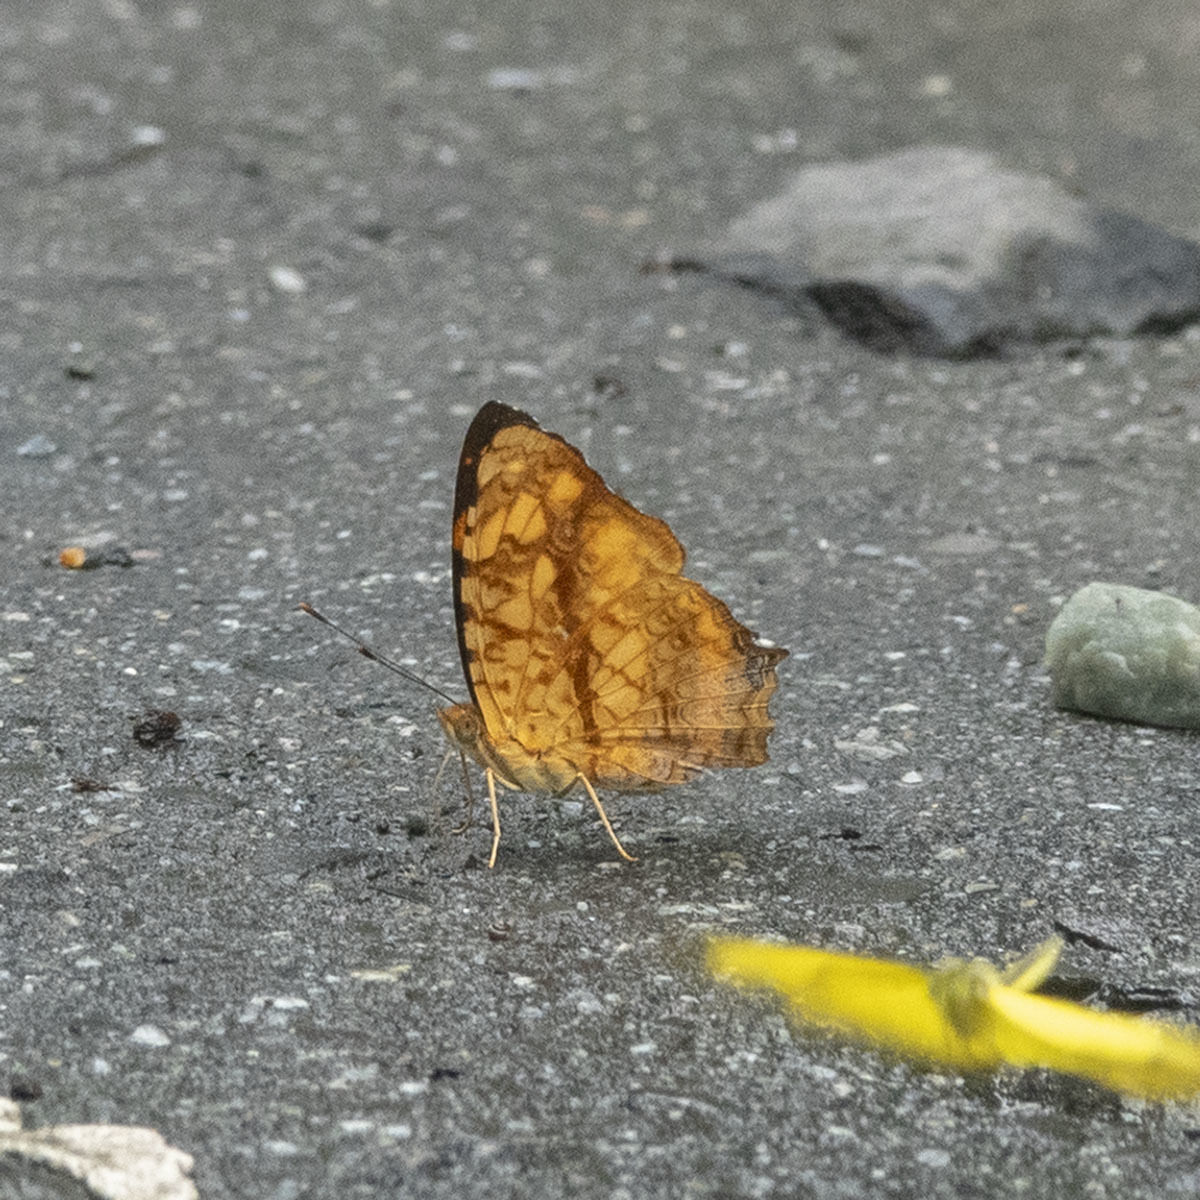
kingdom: Animalia
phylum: Arthropoda
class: Insecta
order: Lepidoptera
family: Nymphalidae
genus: Symbrenthia
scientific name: Symbrenthia hypselis
